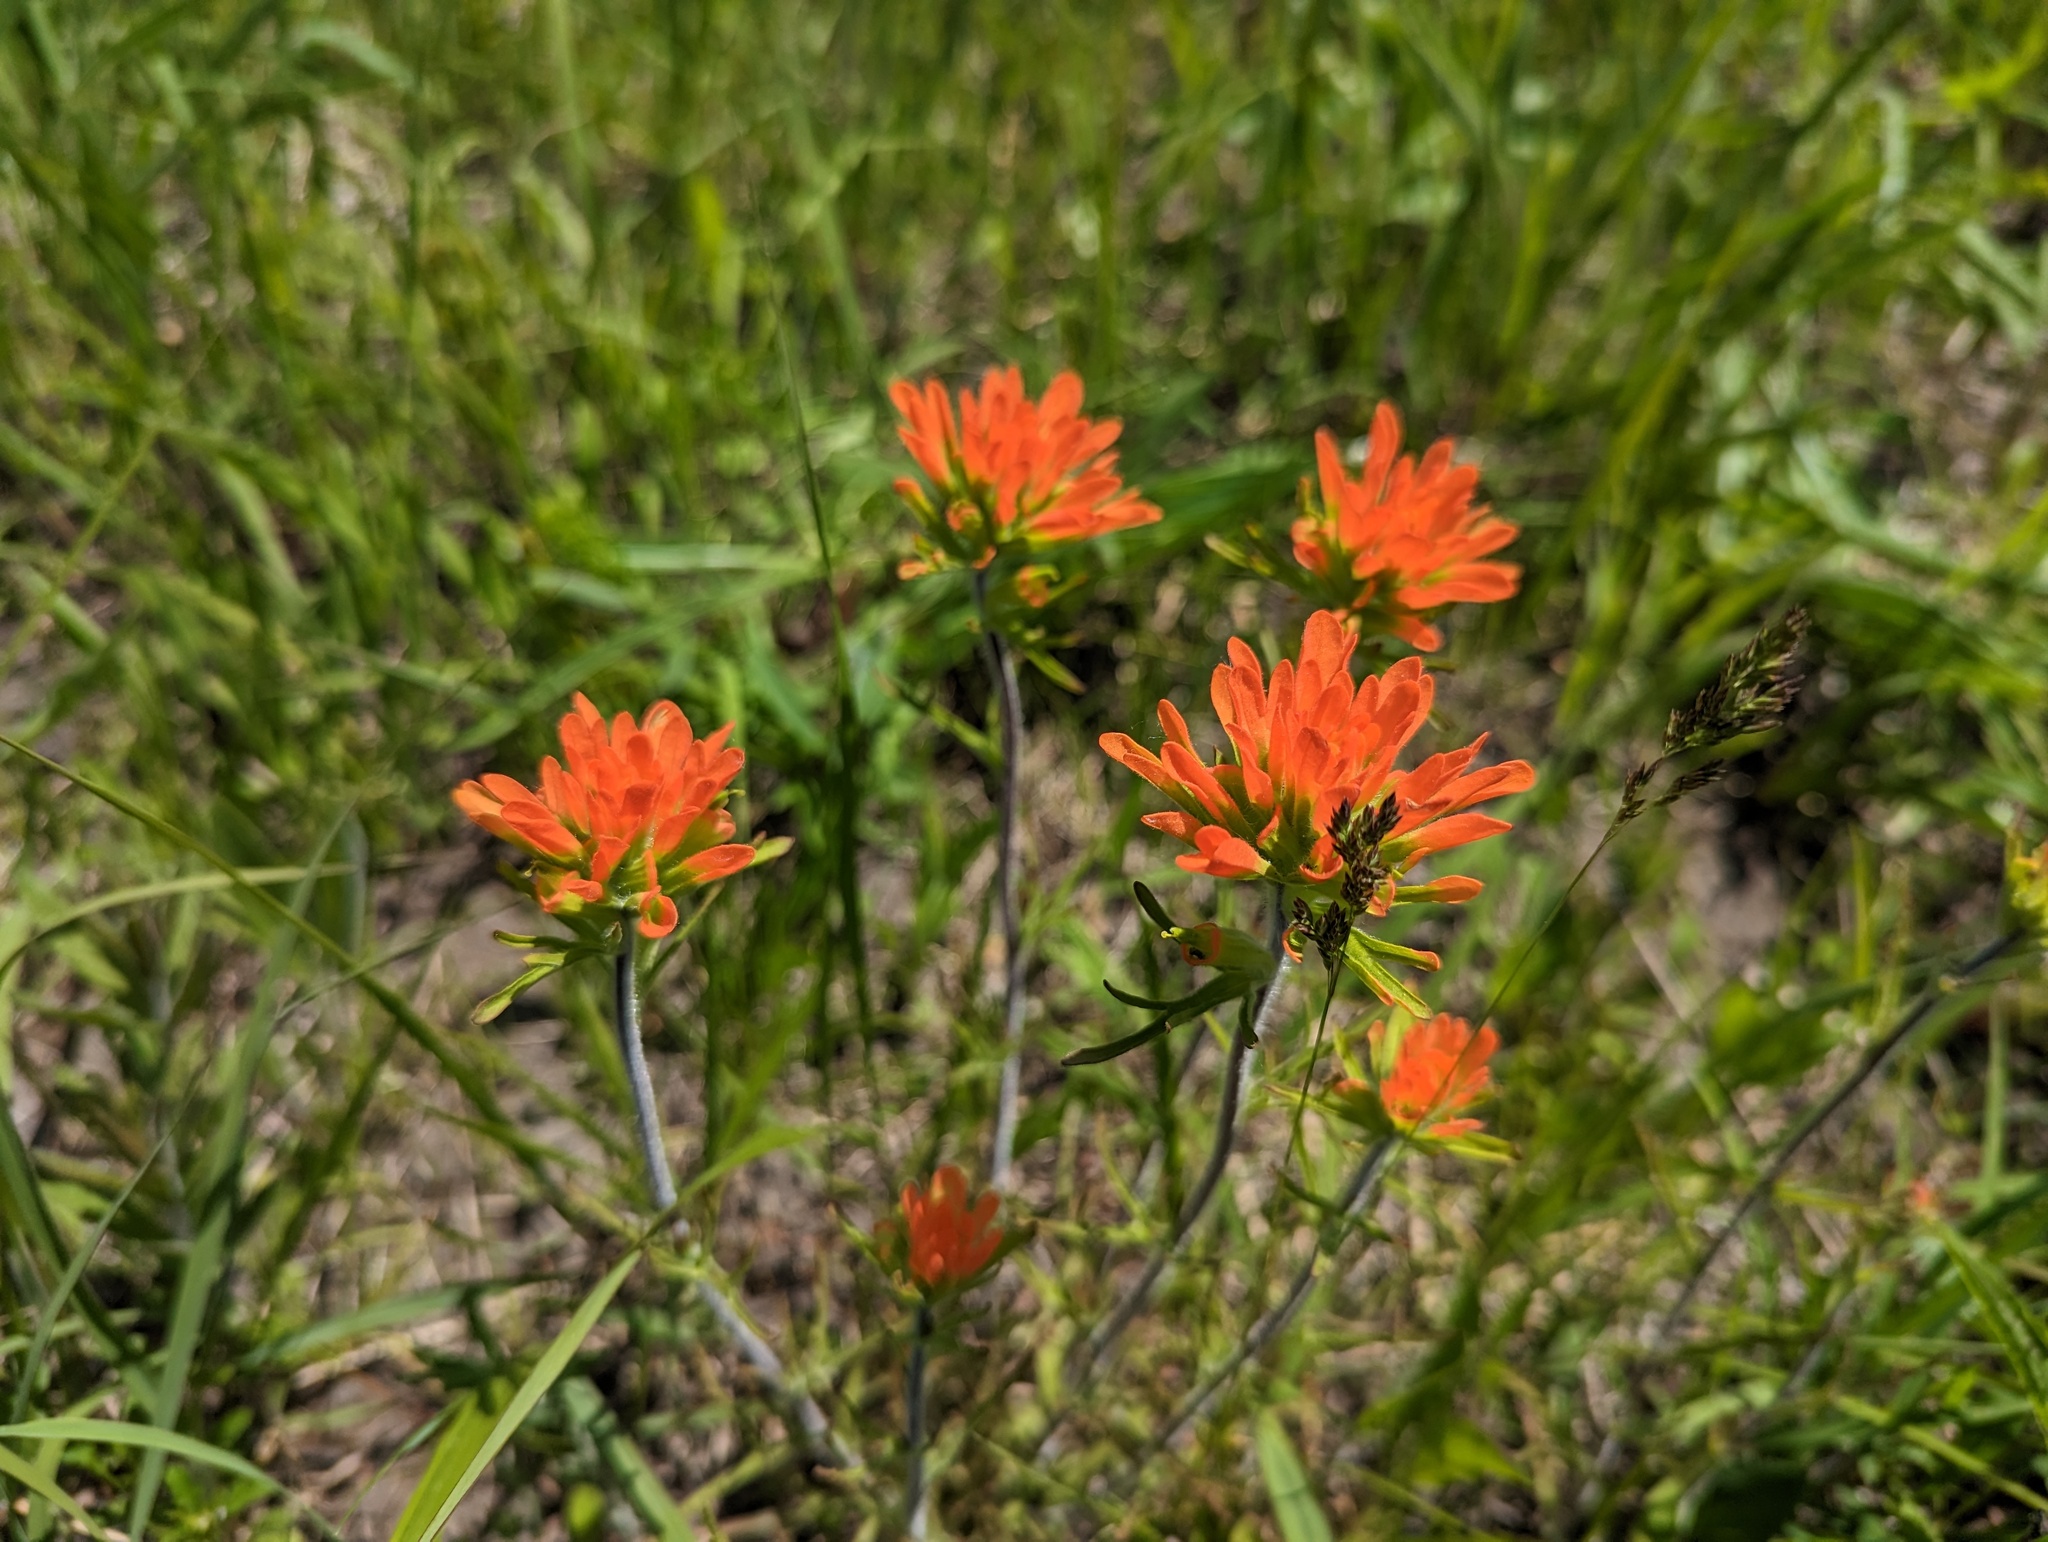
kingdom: Plantae
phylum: Tracheophyta
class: Magnoliopsida
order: Lamiales
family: Orobanchaceae
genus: Castilleja
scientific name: Castilleja coccinea
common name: Scarlet paintbrush
